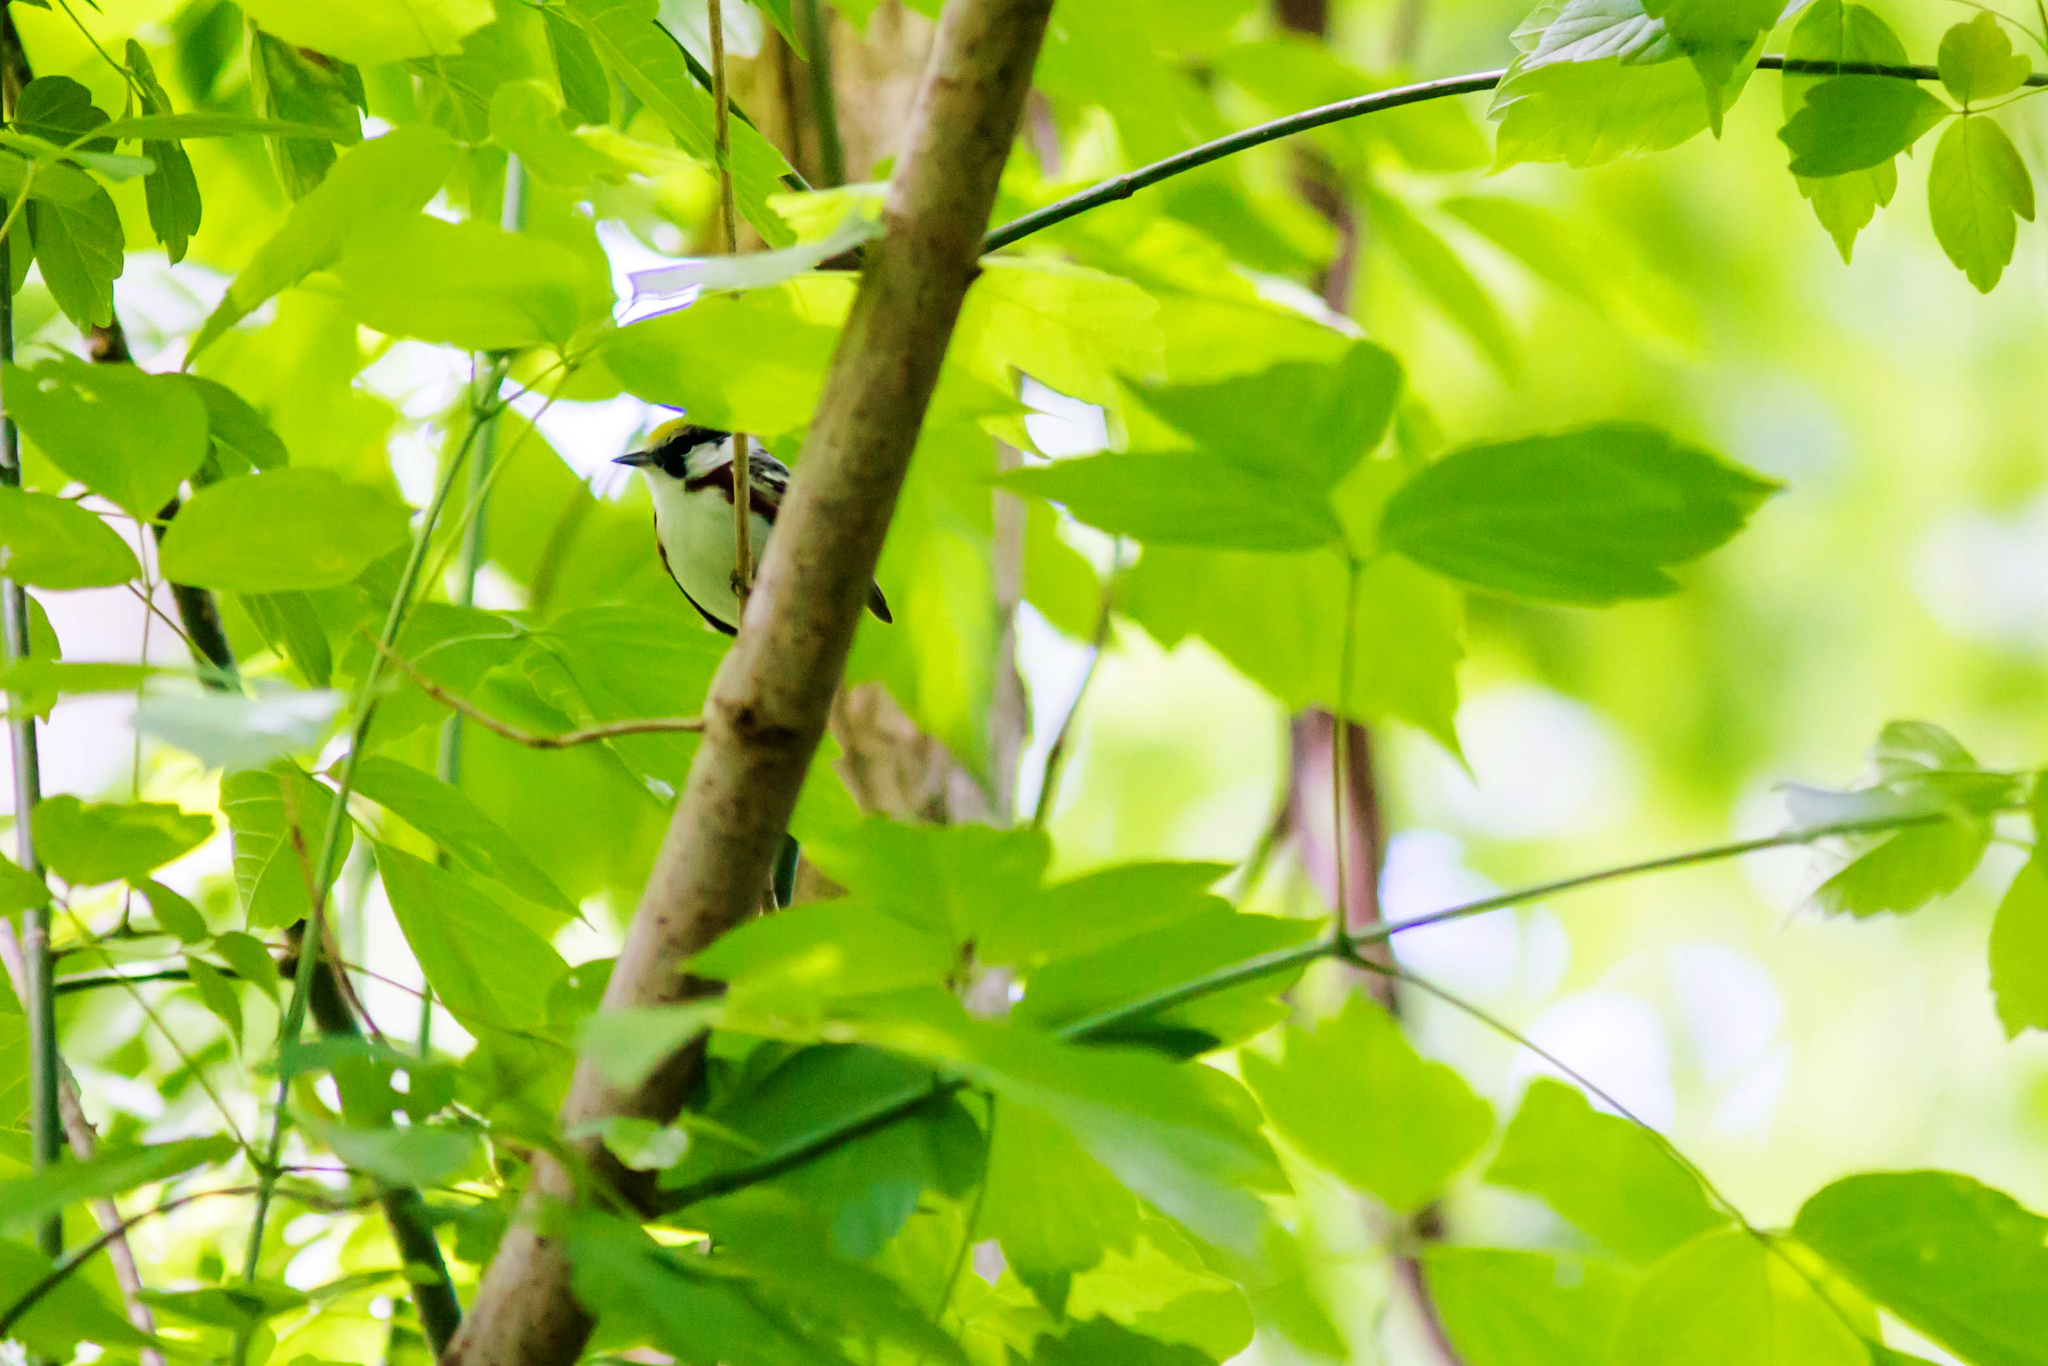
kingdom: Animalia
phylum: Chordata
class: Aves
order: Passeriformes
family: Parulidae
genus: Setophaga
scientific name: Setophaga pensylvanica
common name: Chestnut-sided warbler
